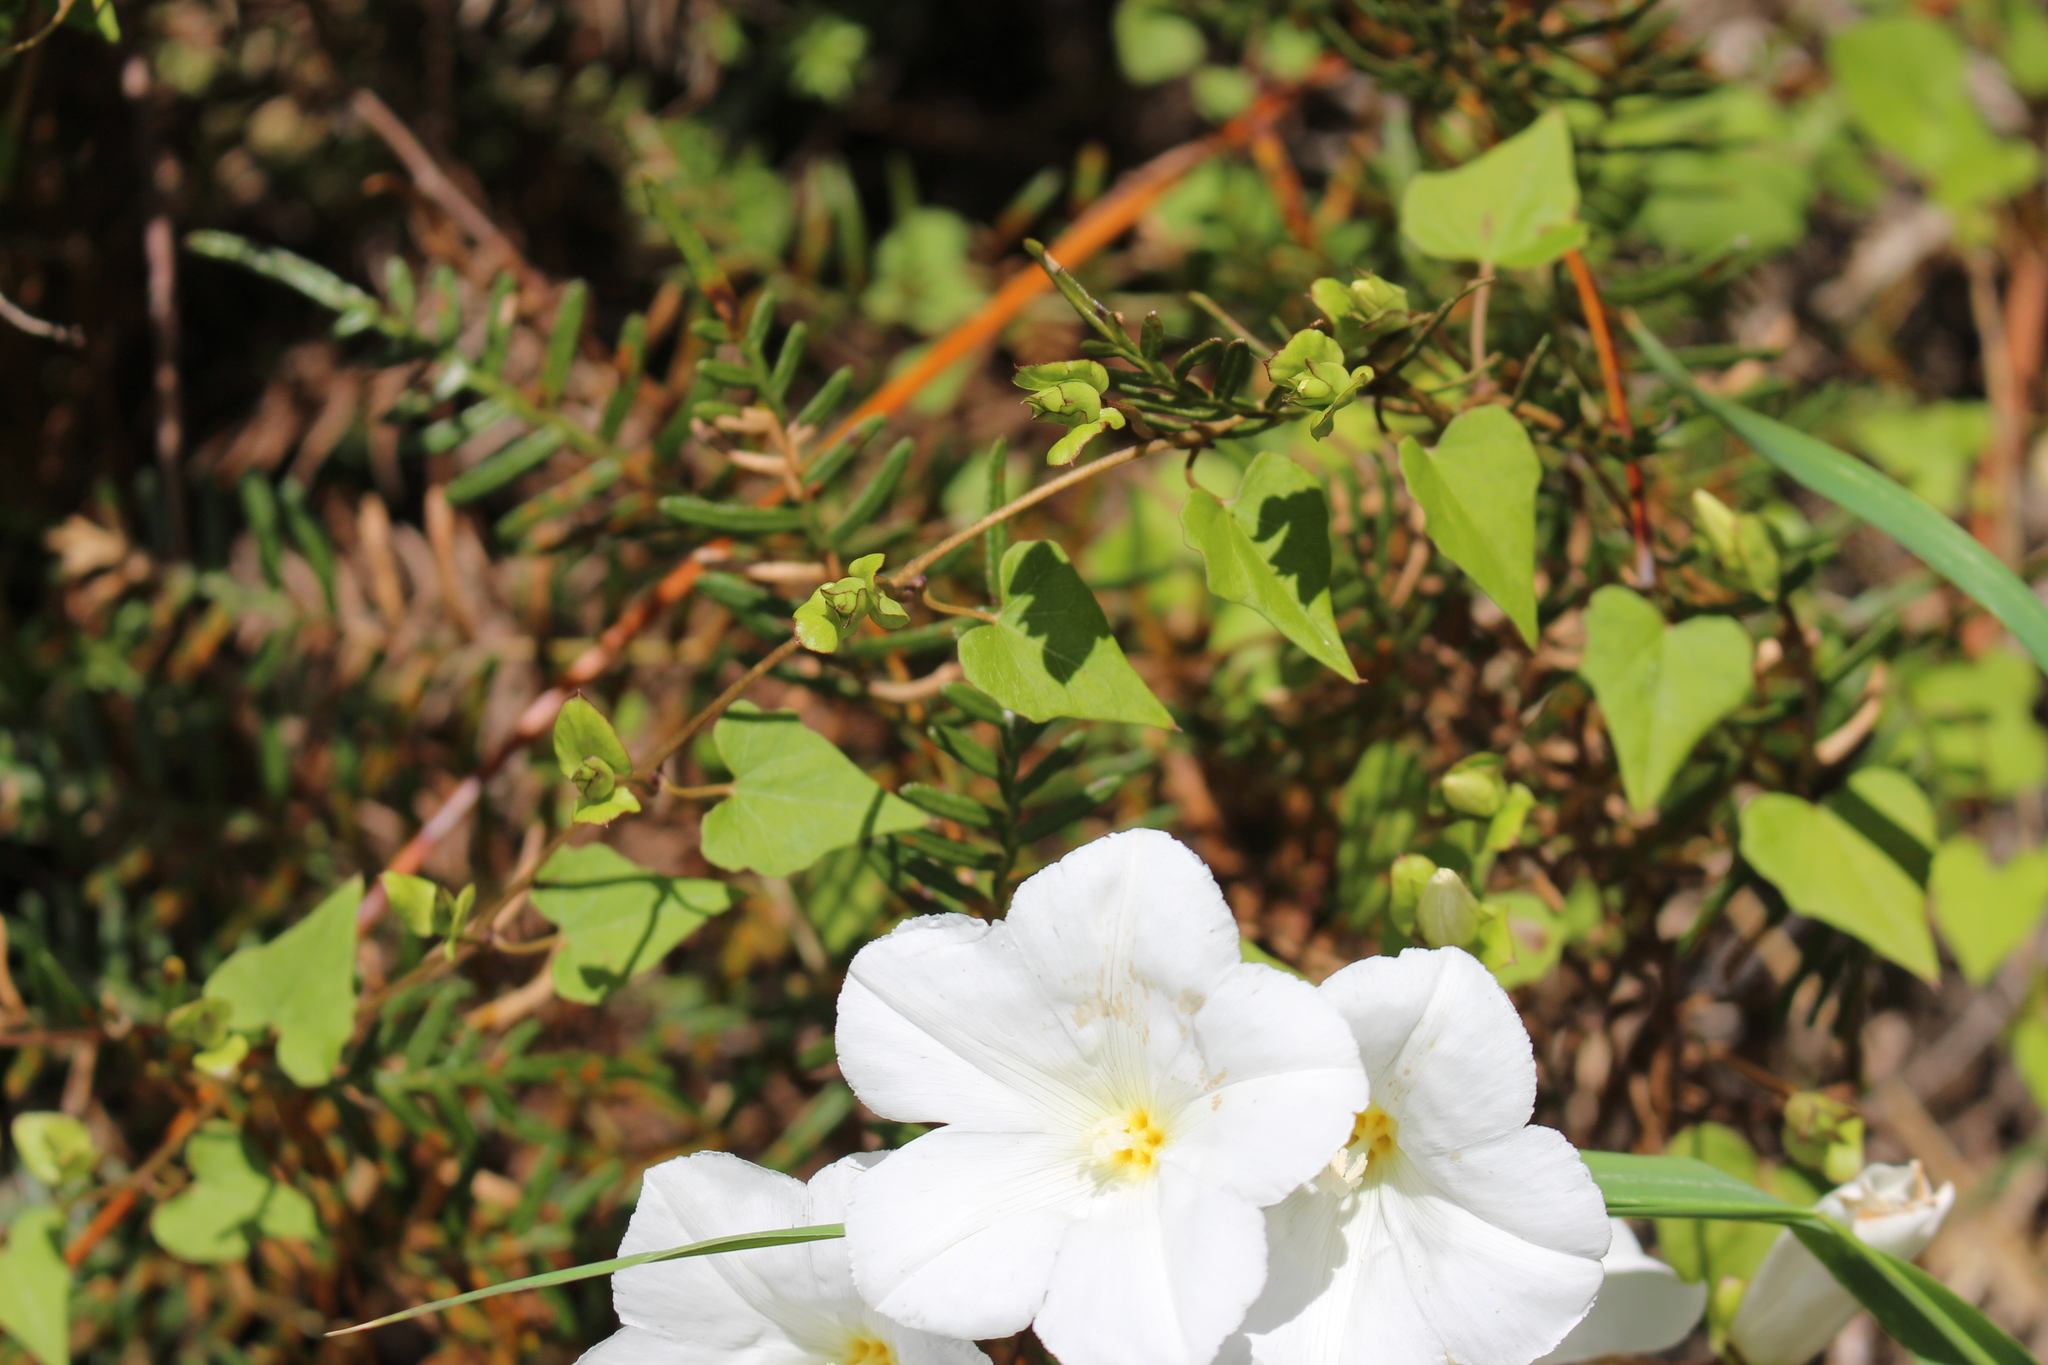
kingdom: Plantae
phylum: Tracheophyta
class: Magnoliopsida
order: Solanales
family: Convolvulaceae
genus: Calystegia
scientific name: Calystegia tuguriorum
